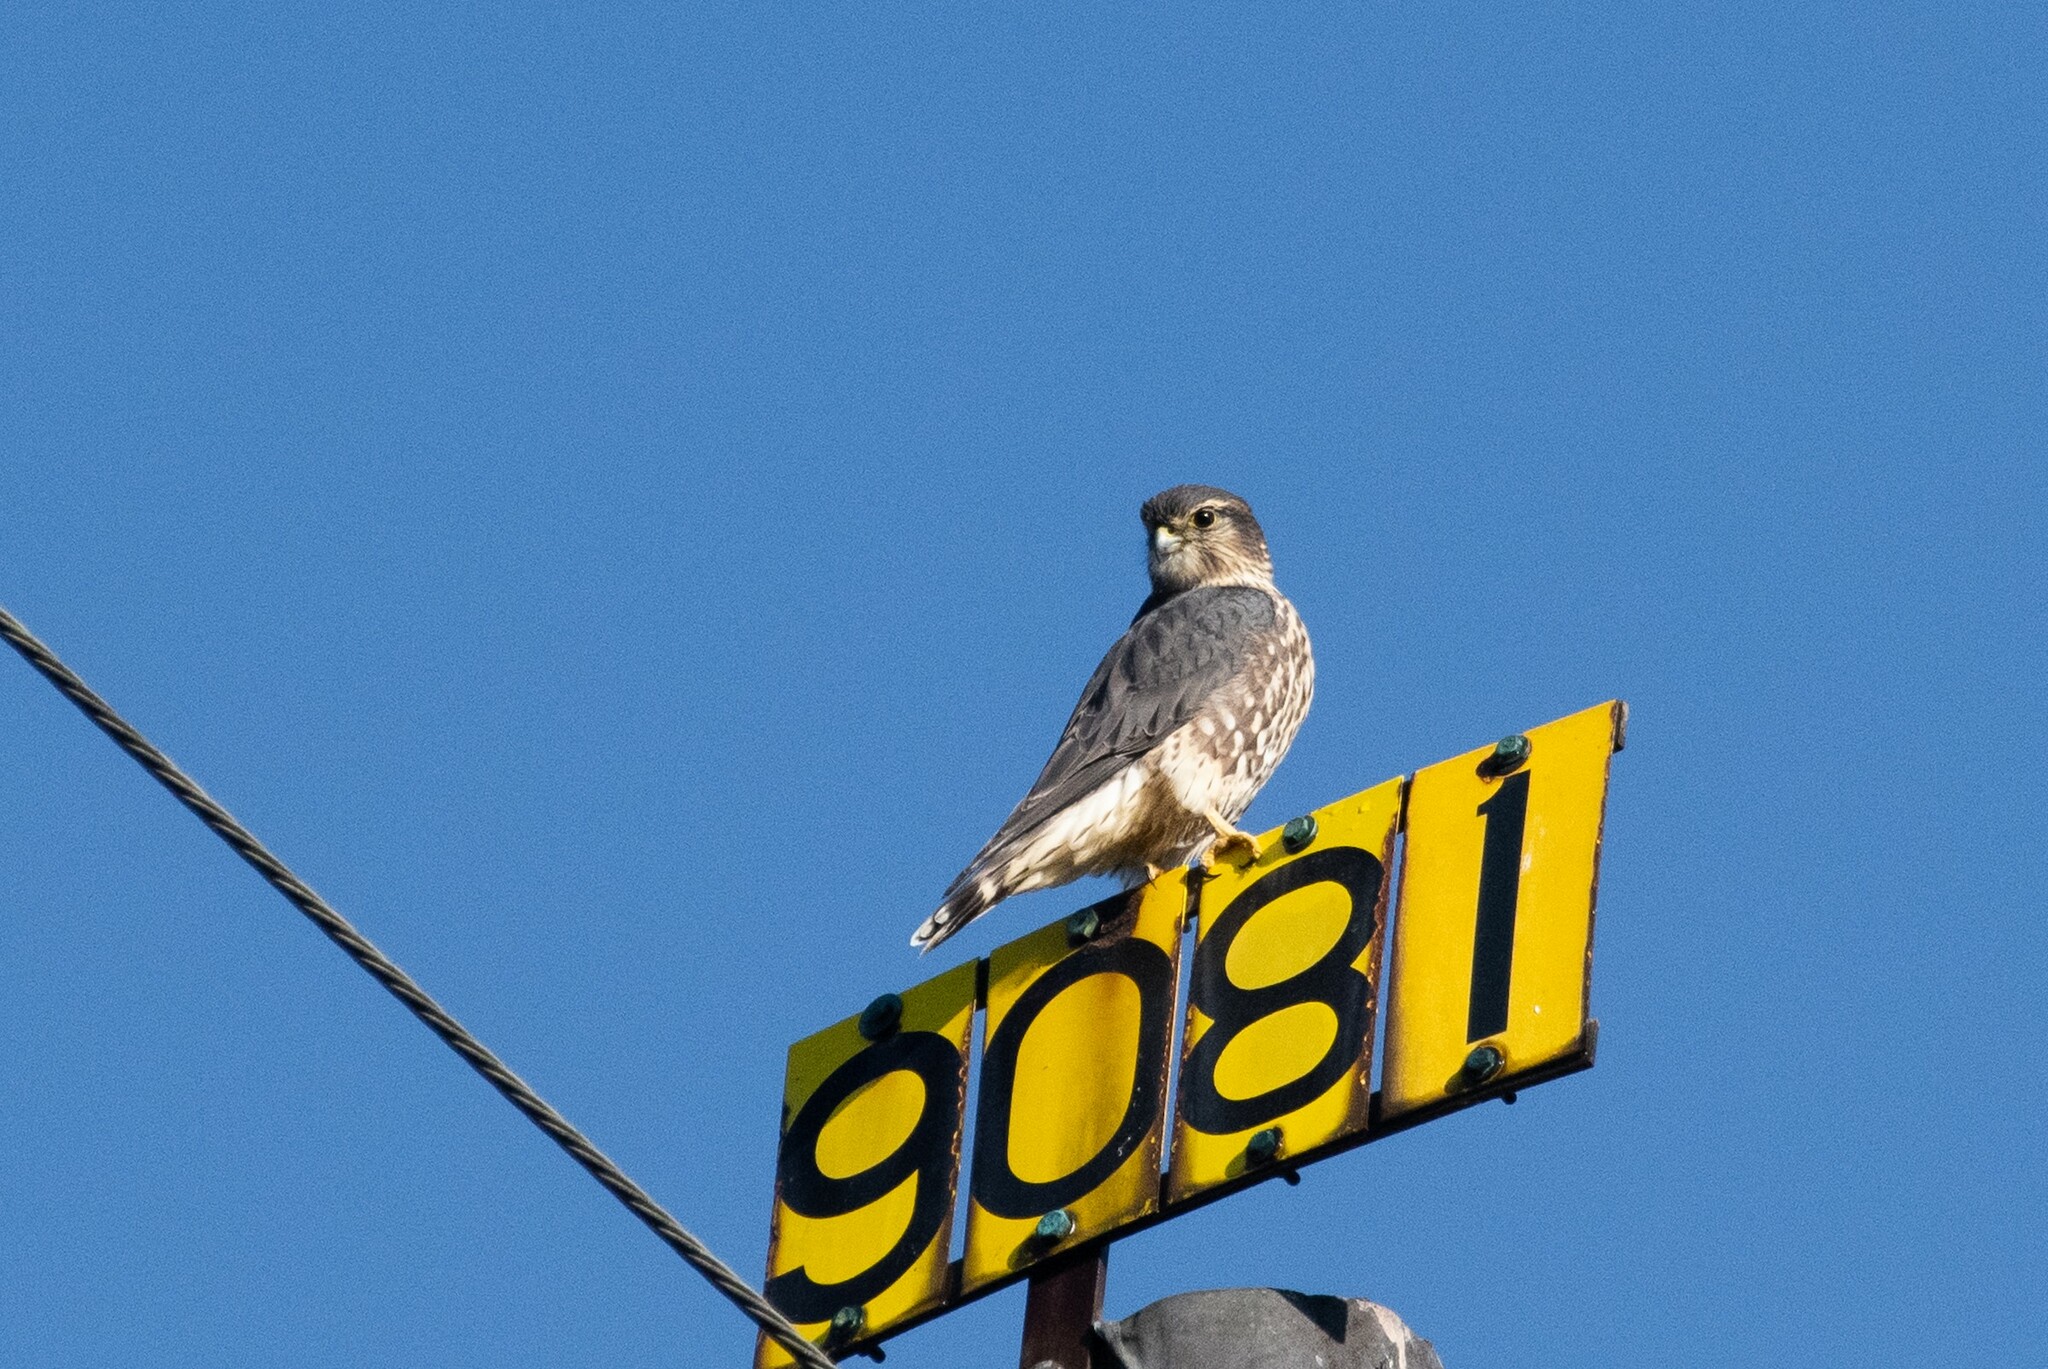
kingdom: Animalia
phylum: Chordata
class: Aves
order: Falconiformes
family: Falconidae
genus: Falco
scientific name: Falco columbarius
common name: Merlin
